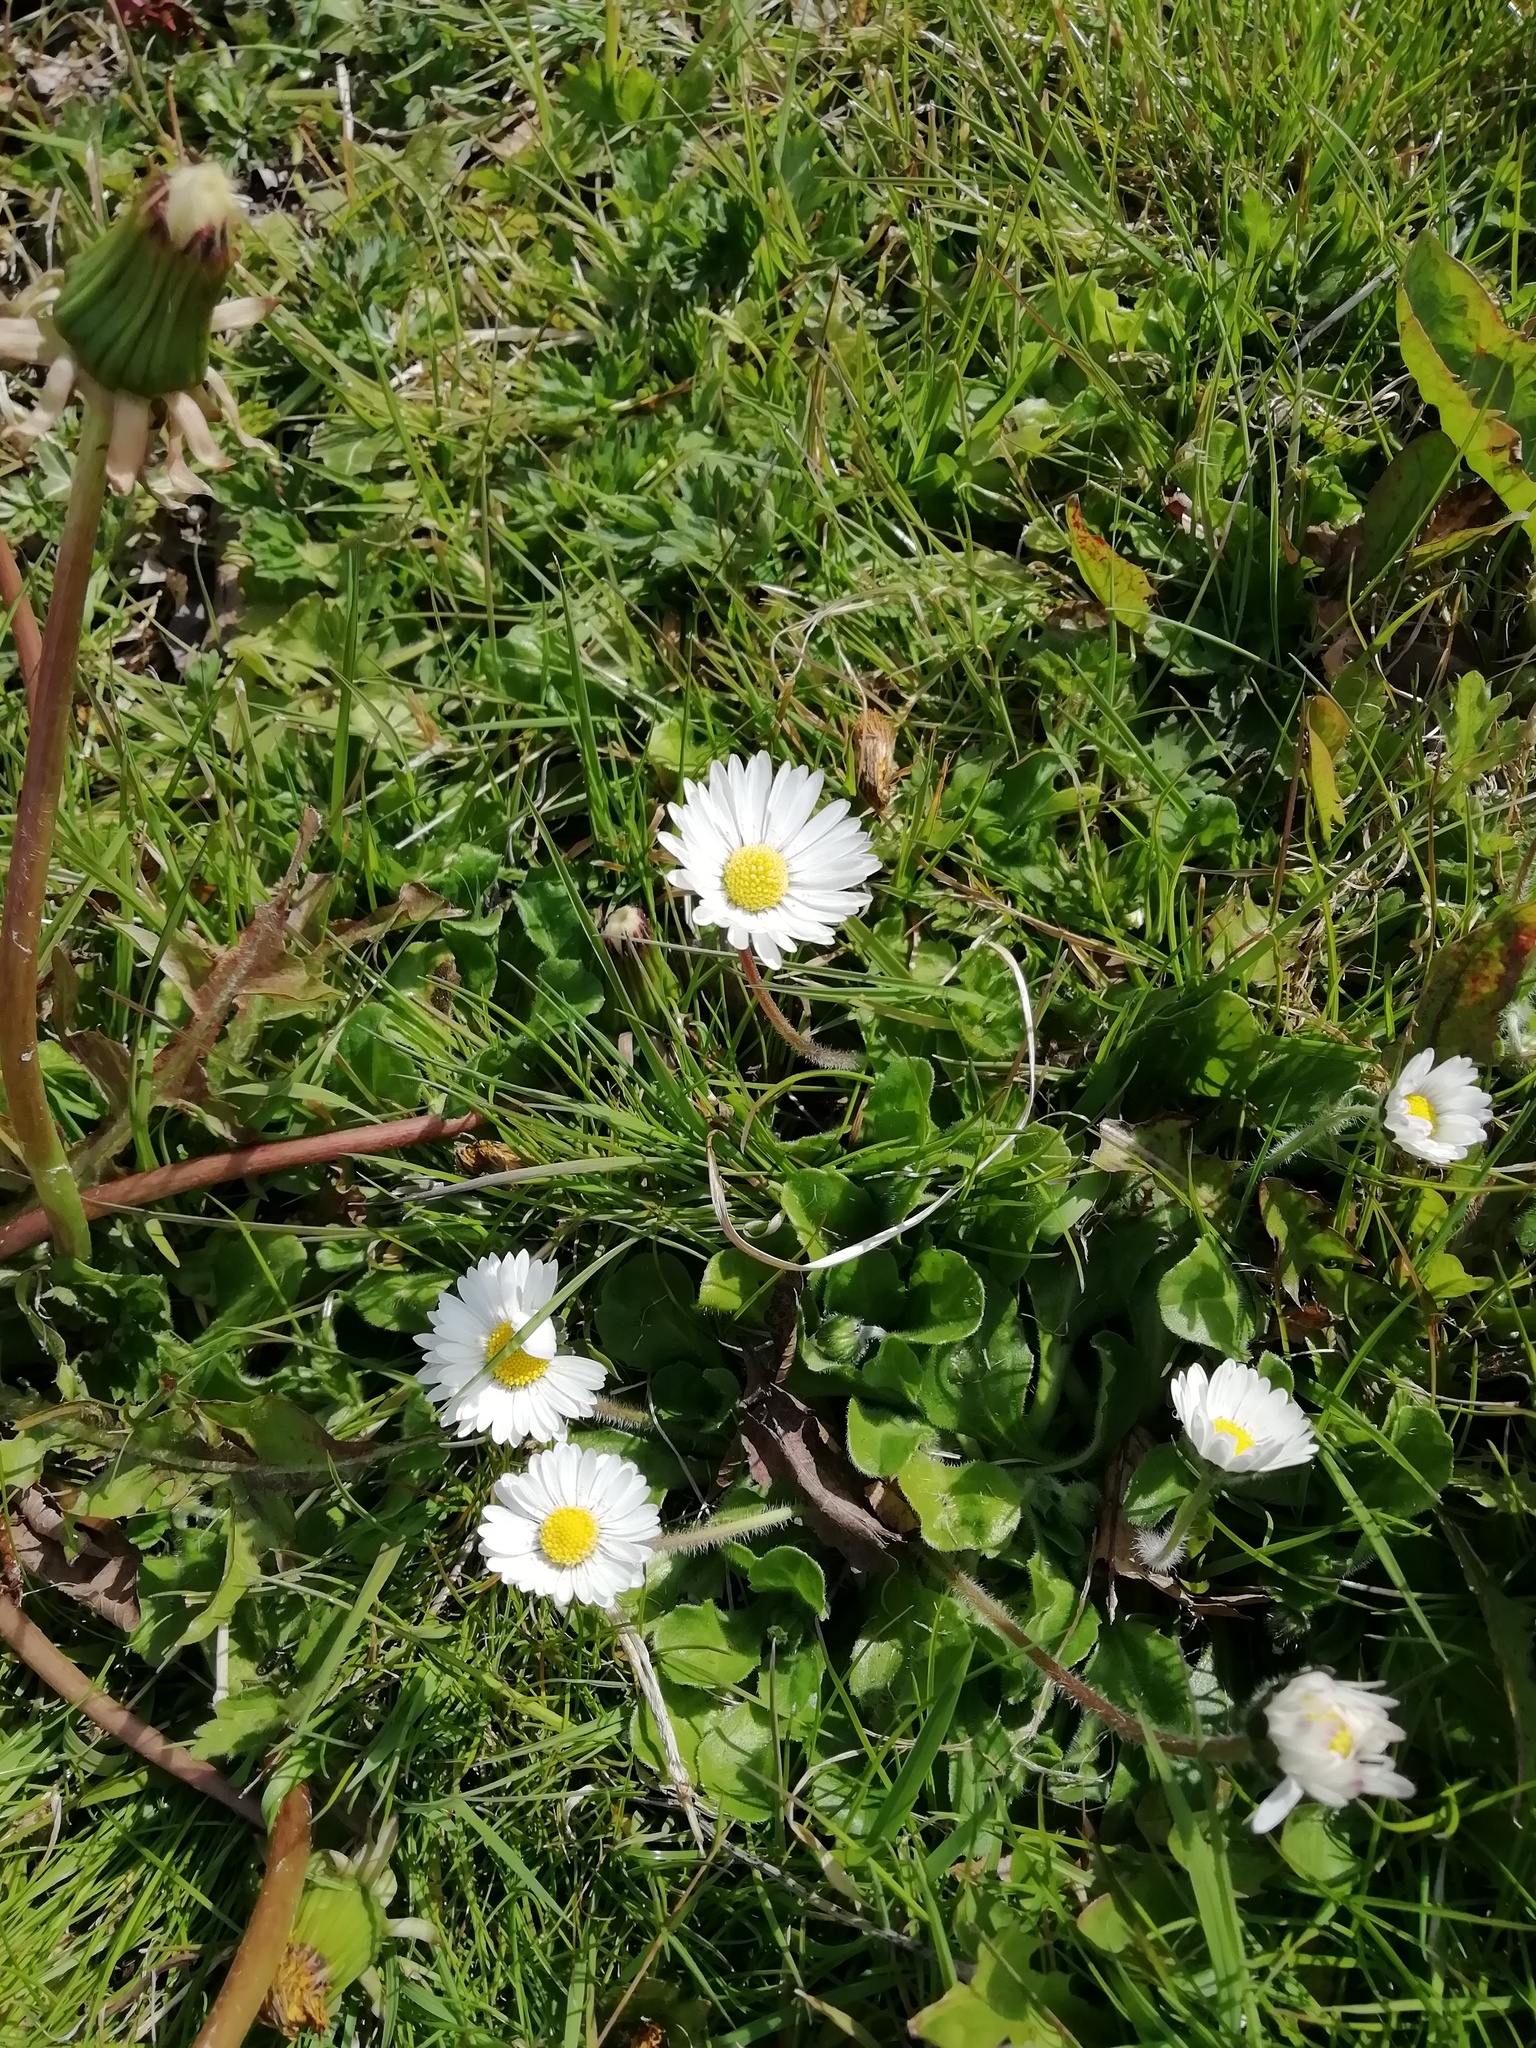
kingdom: Plantae
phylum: Tracheophyta
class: Magnoliopsida
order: Asterales
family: Asteraceae
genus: Bellis
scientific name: Bellis perennis
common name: Lawndaisy
